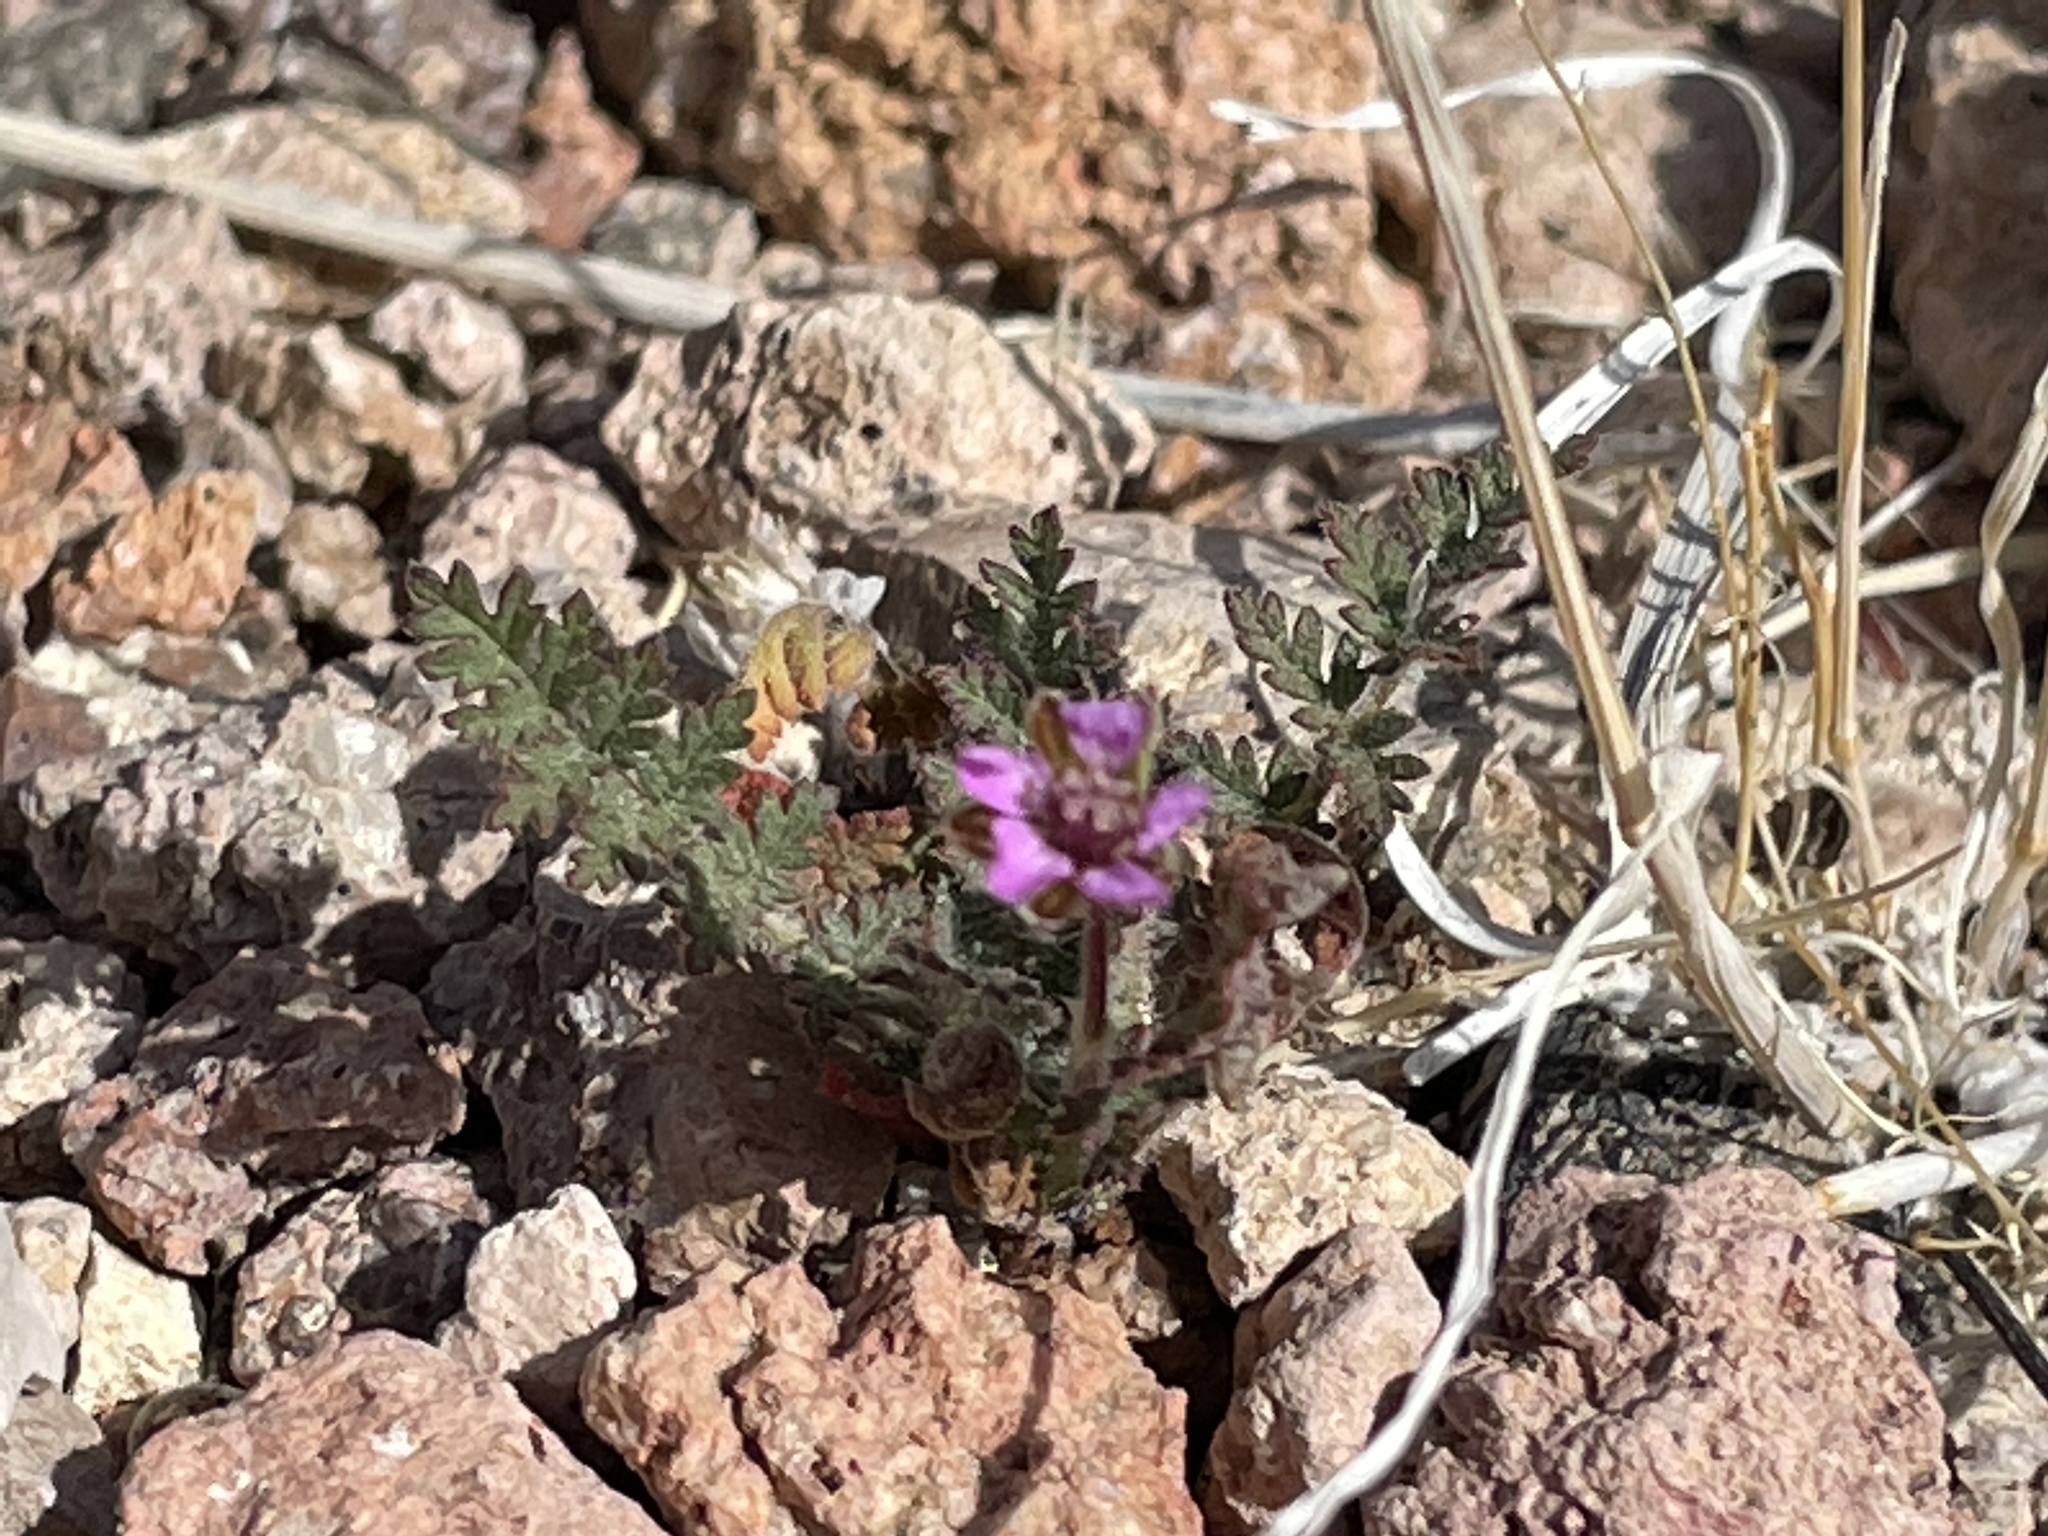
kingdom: Plantae
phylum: Tracheophyta
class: Magnoliopsida
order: Geraniales
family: Geraniaceae
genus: Erodium
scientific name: Erodium cicutarium
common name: Common stork's-bill
